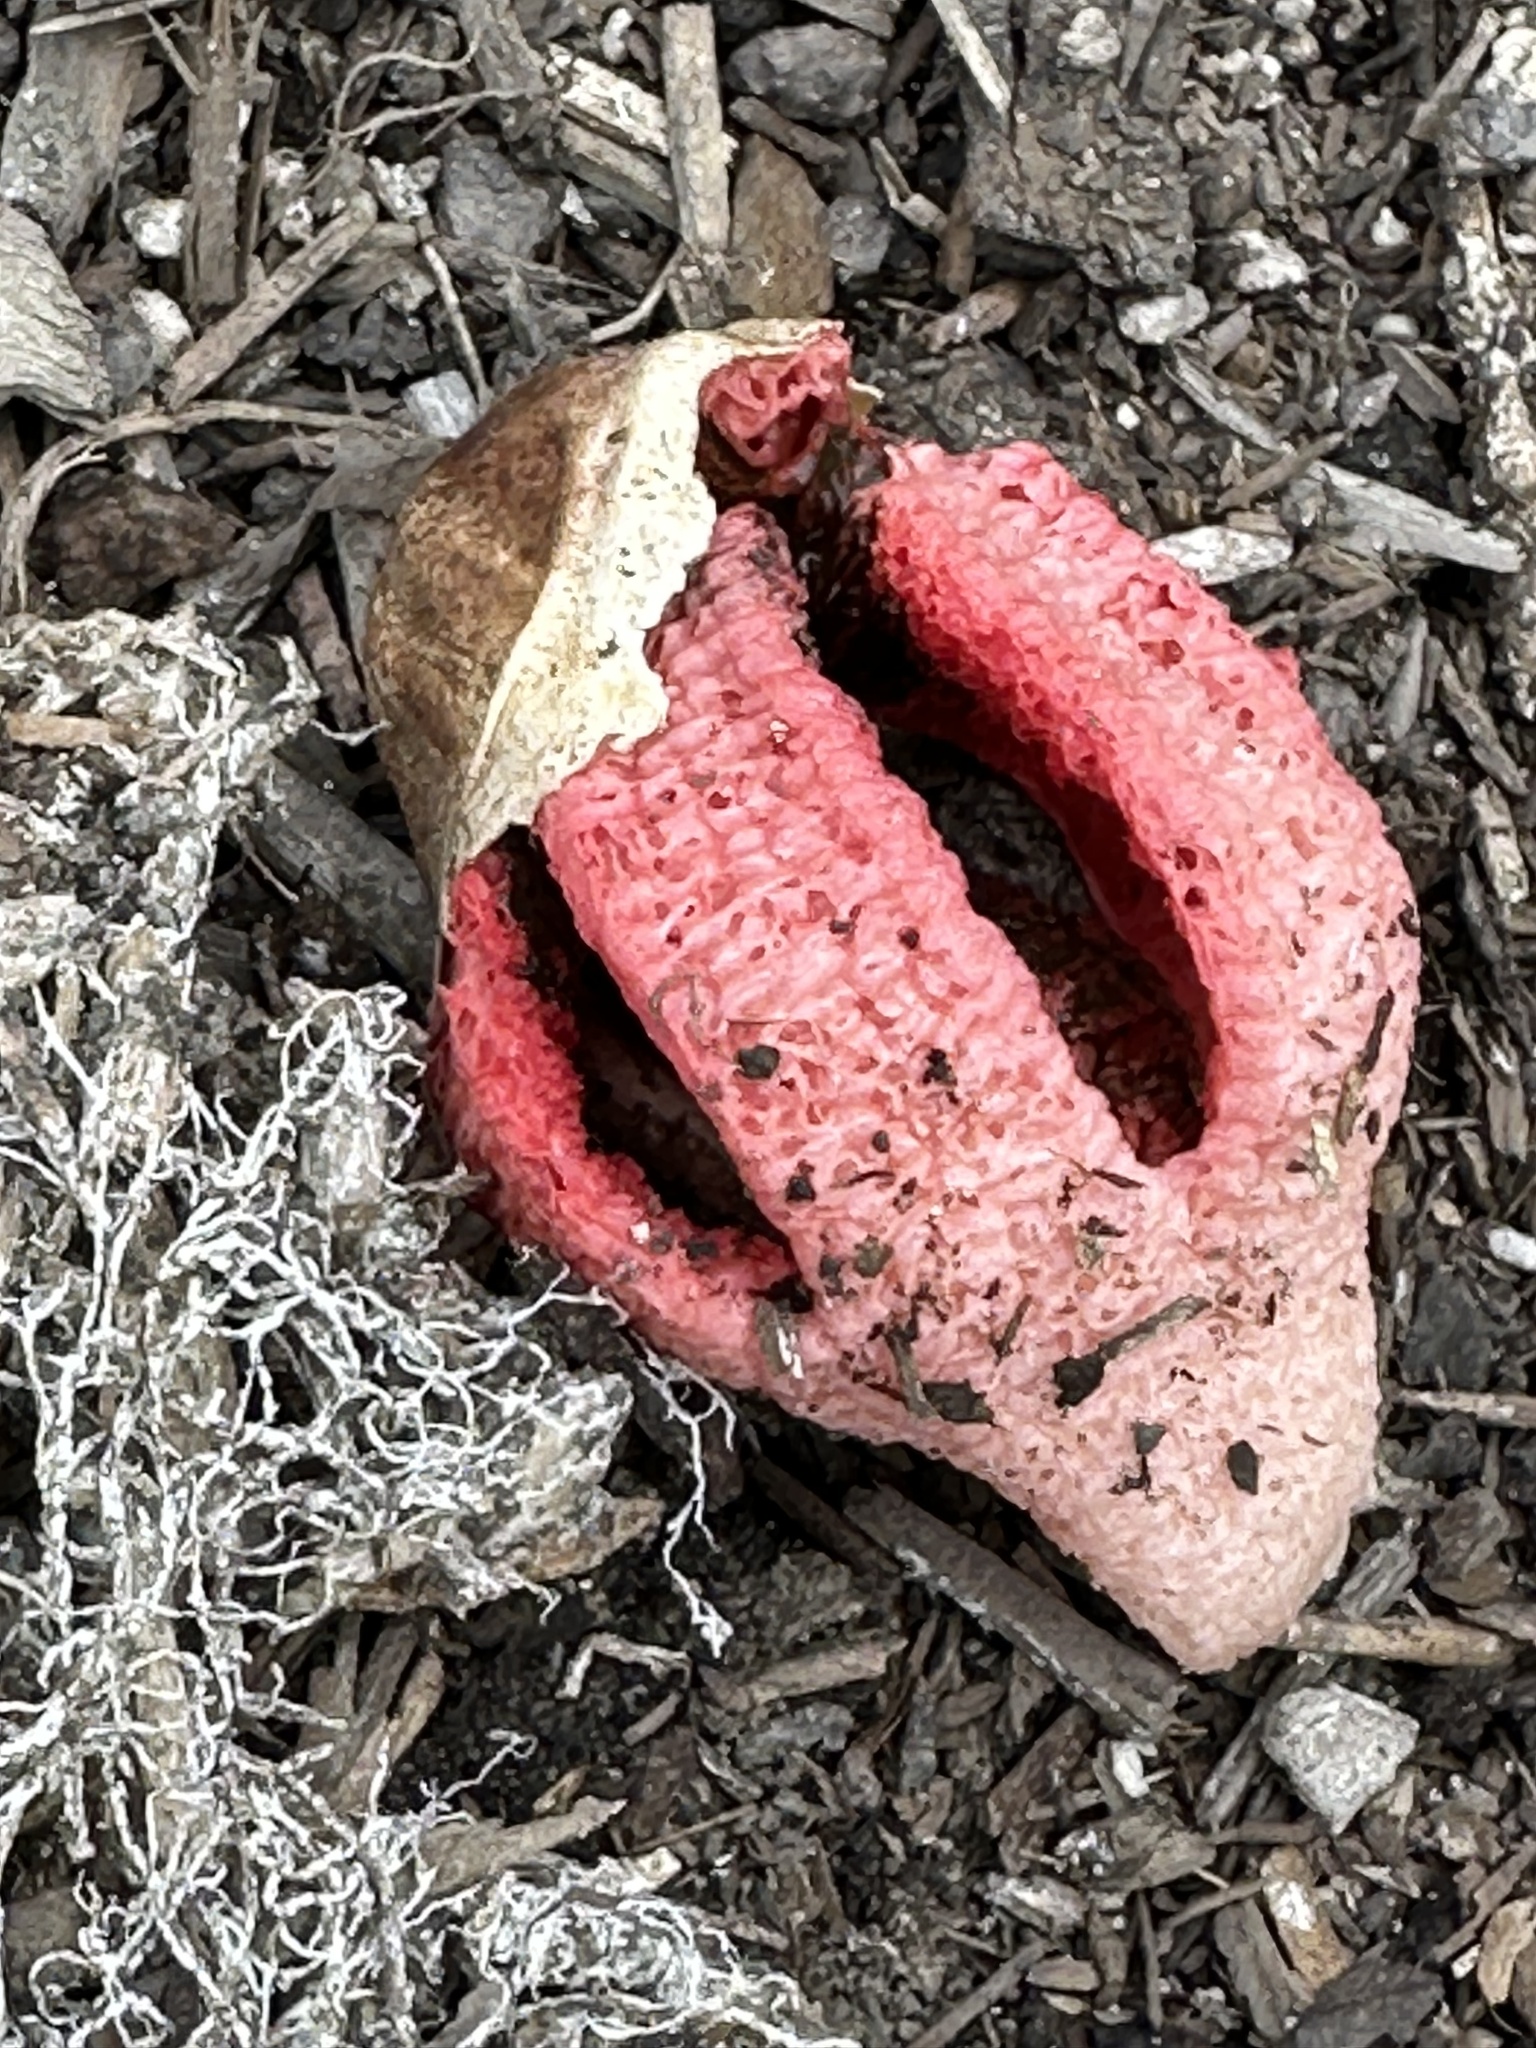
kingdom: Fungi
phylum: Basidiomycota
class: Agaricomycetes
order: Phallales
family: Phallaceae
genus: Clathrus
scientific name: Clathrus archeri
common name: Devil's fingers
